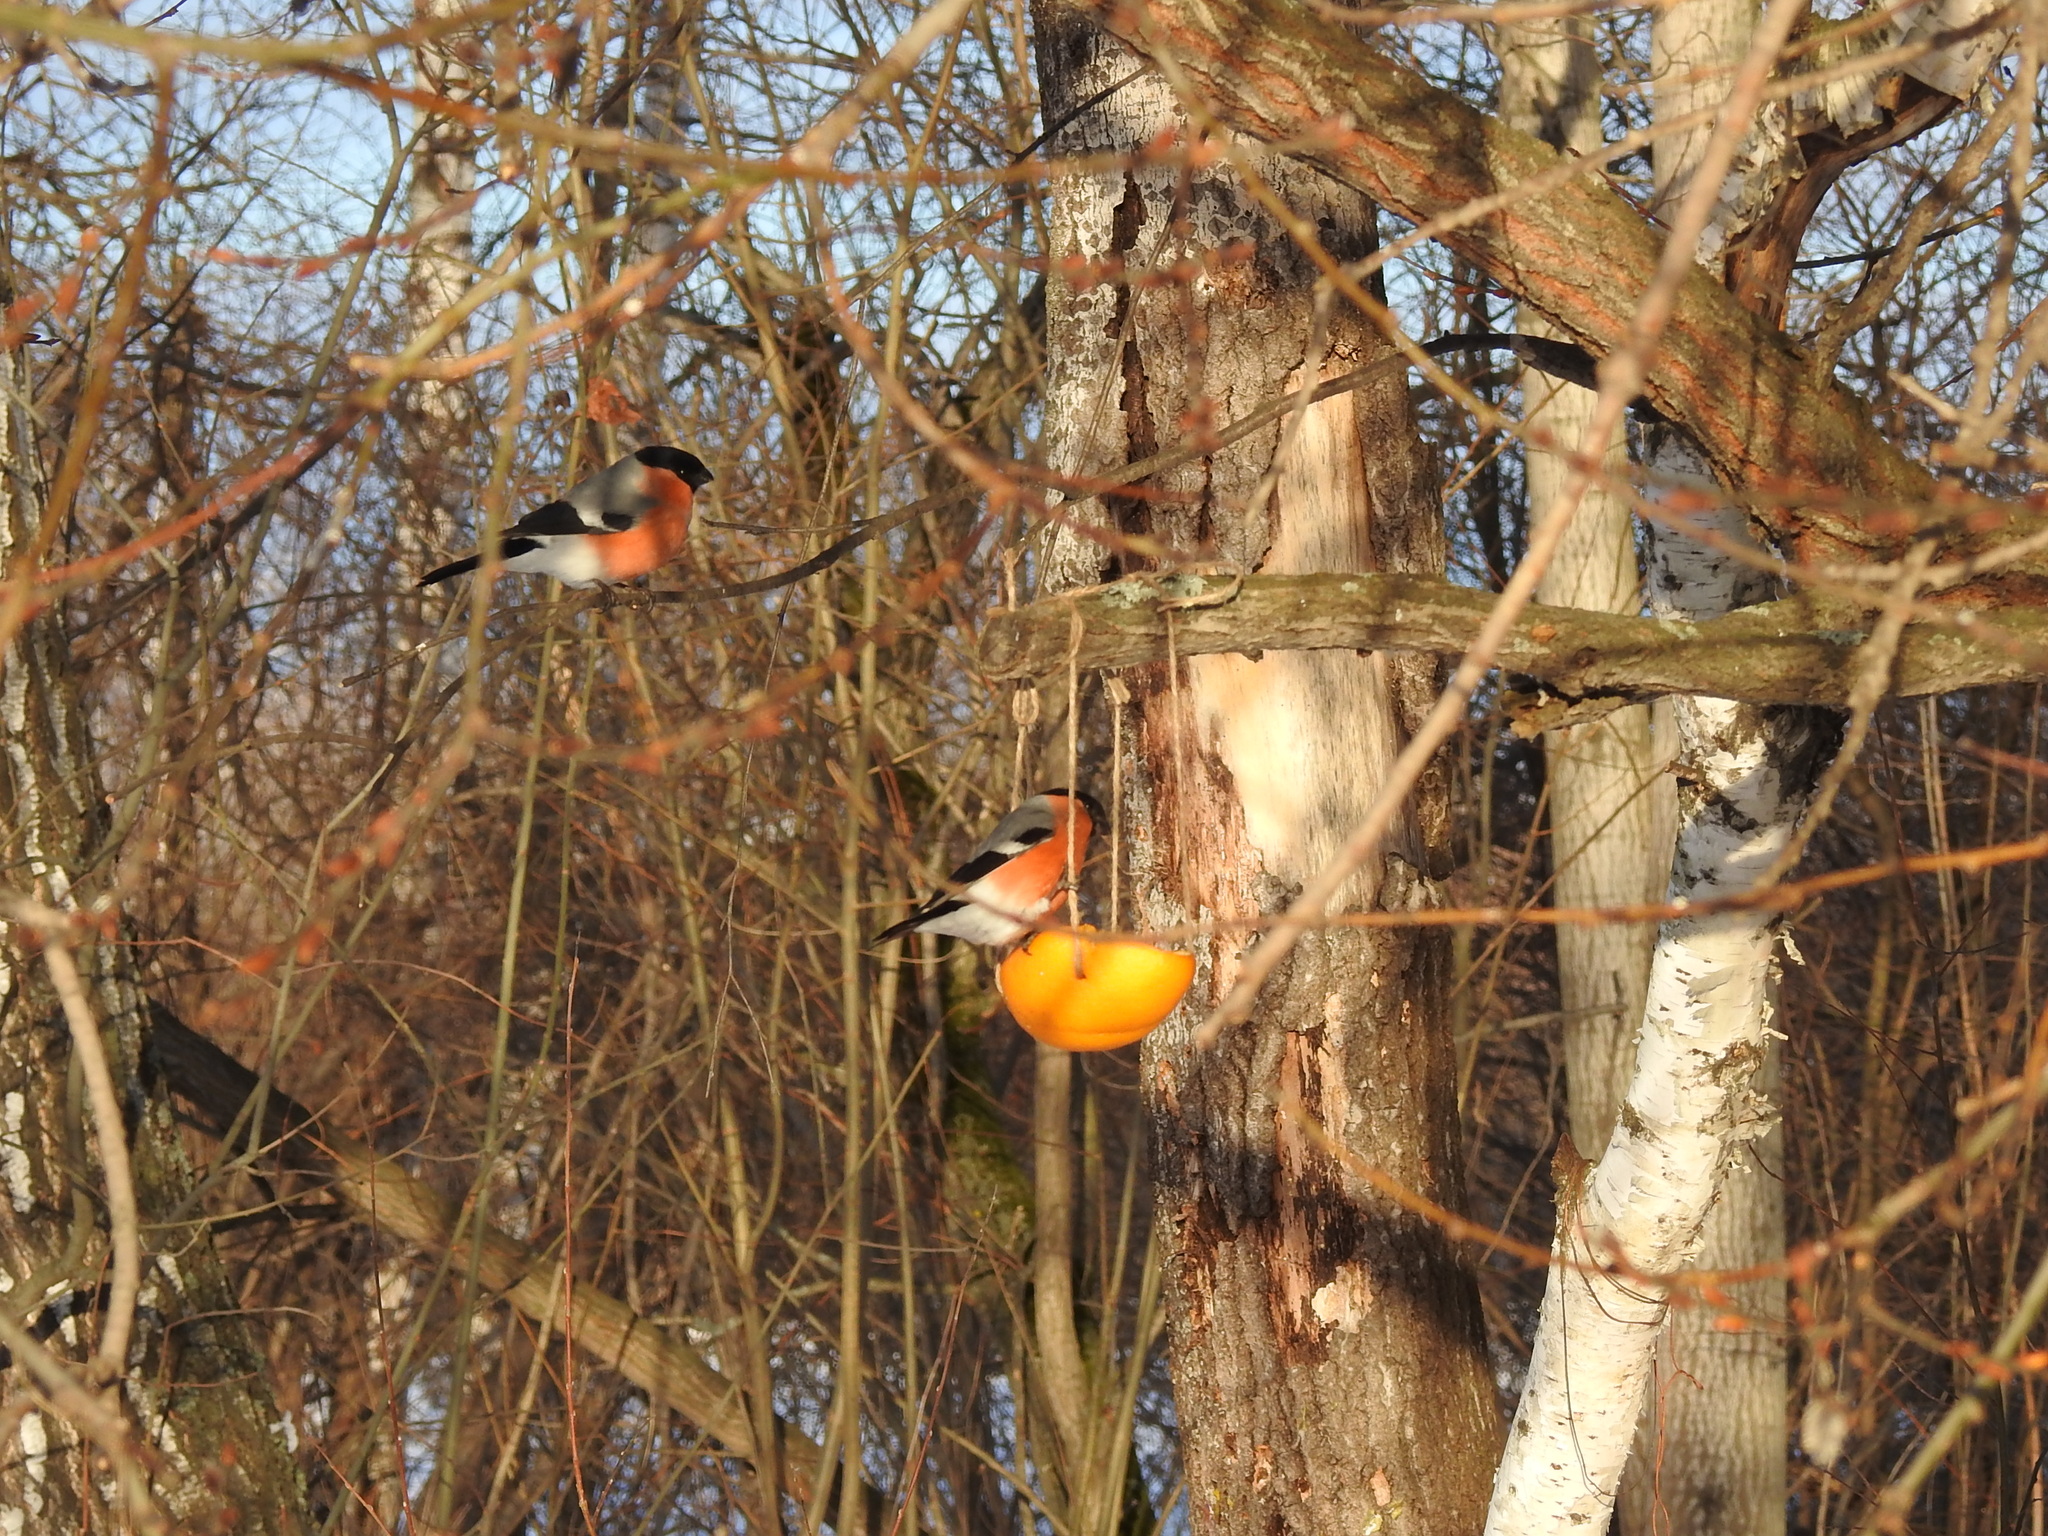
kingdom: Animalia
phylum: Chordata
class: Aves
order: Passeriformes
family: Fringillidae
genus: Pyrrhula
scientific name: Pyrrhula pyrrhula
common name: Eurasian bullfinch
